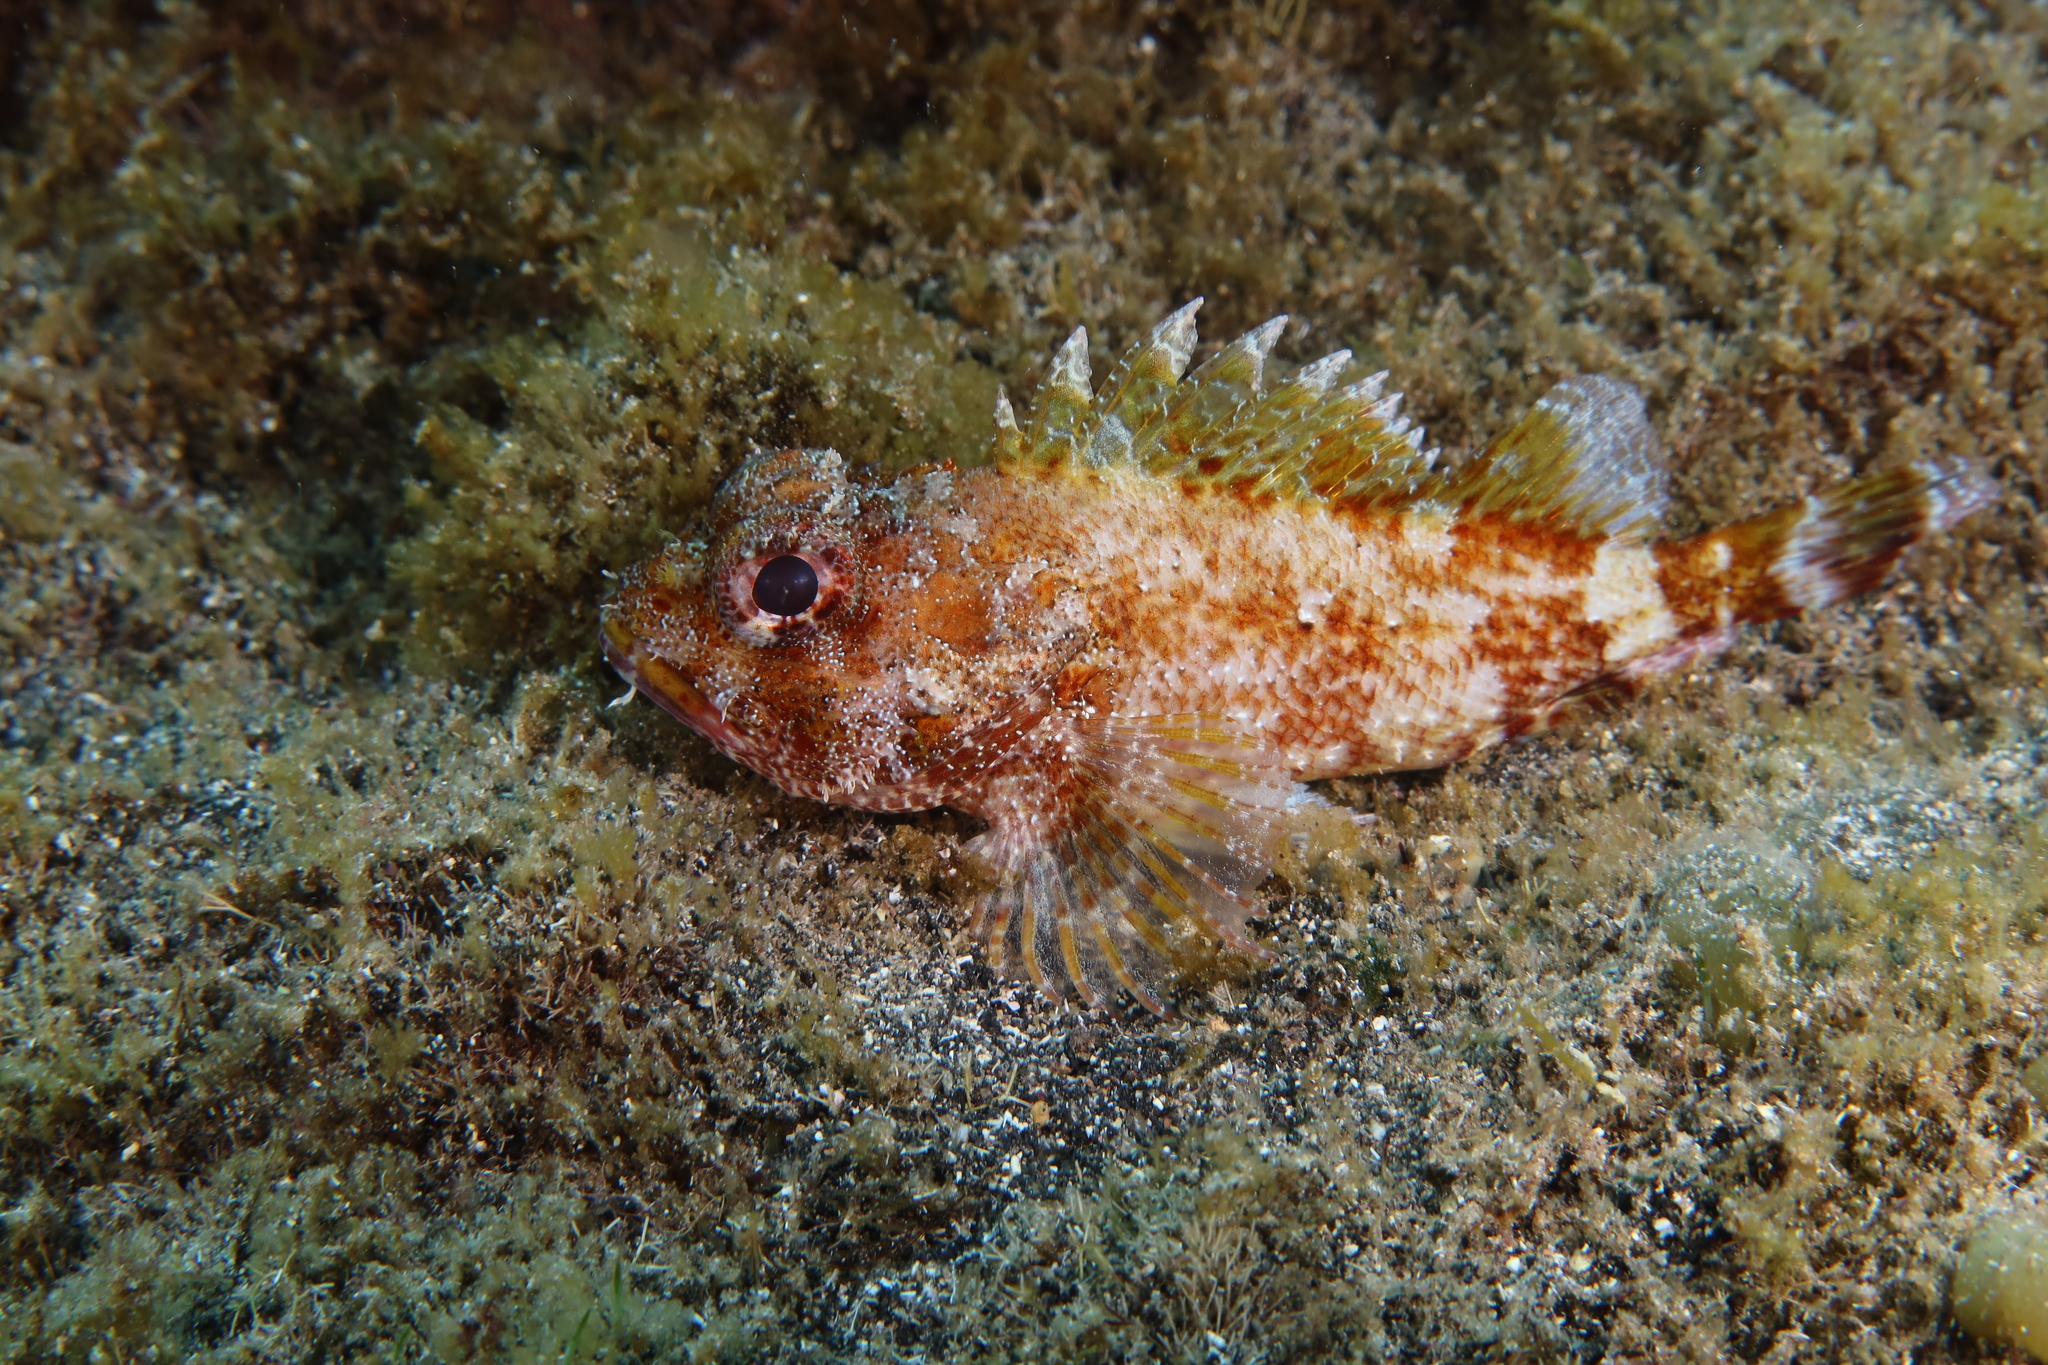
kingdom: Animalia
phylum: Chordata
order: Scorpaeniformes
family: Scorpaenidae
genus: Scorpaena
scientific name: Scorpaena maderensis
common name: Madeira rockfish
